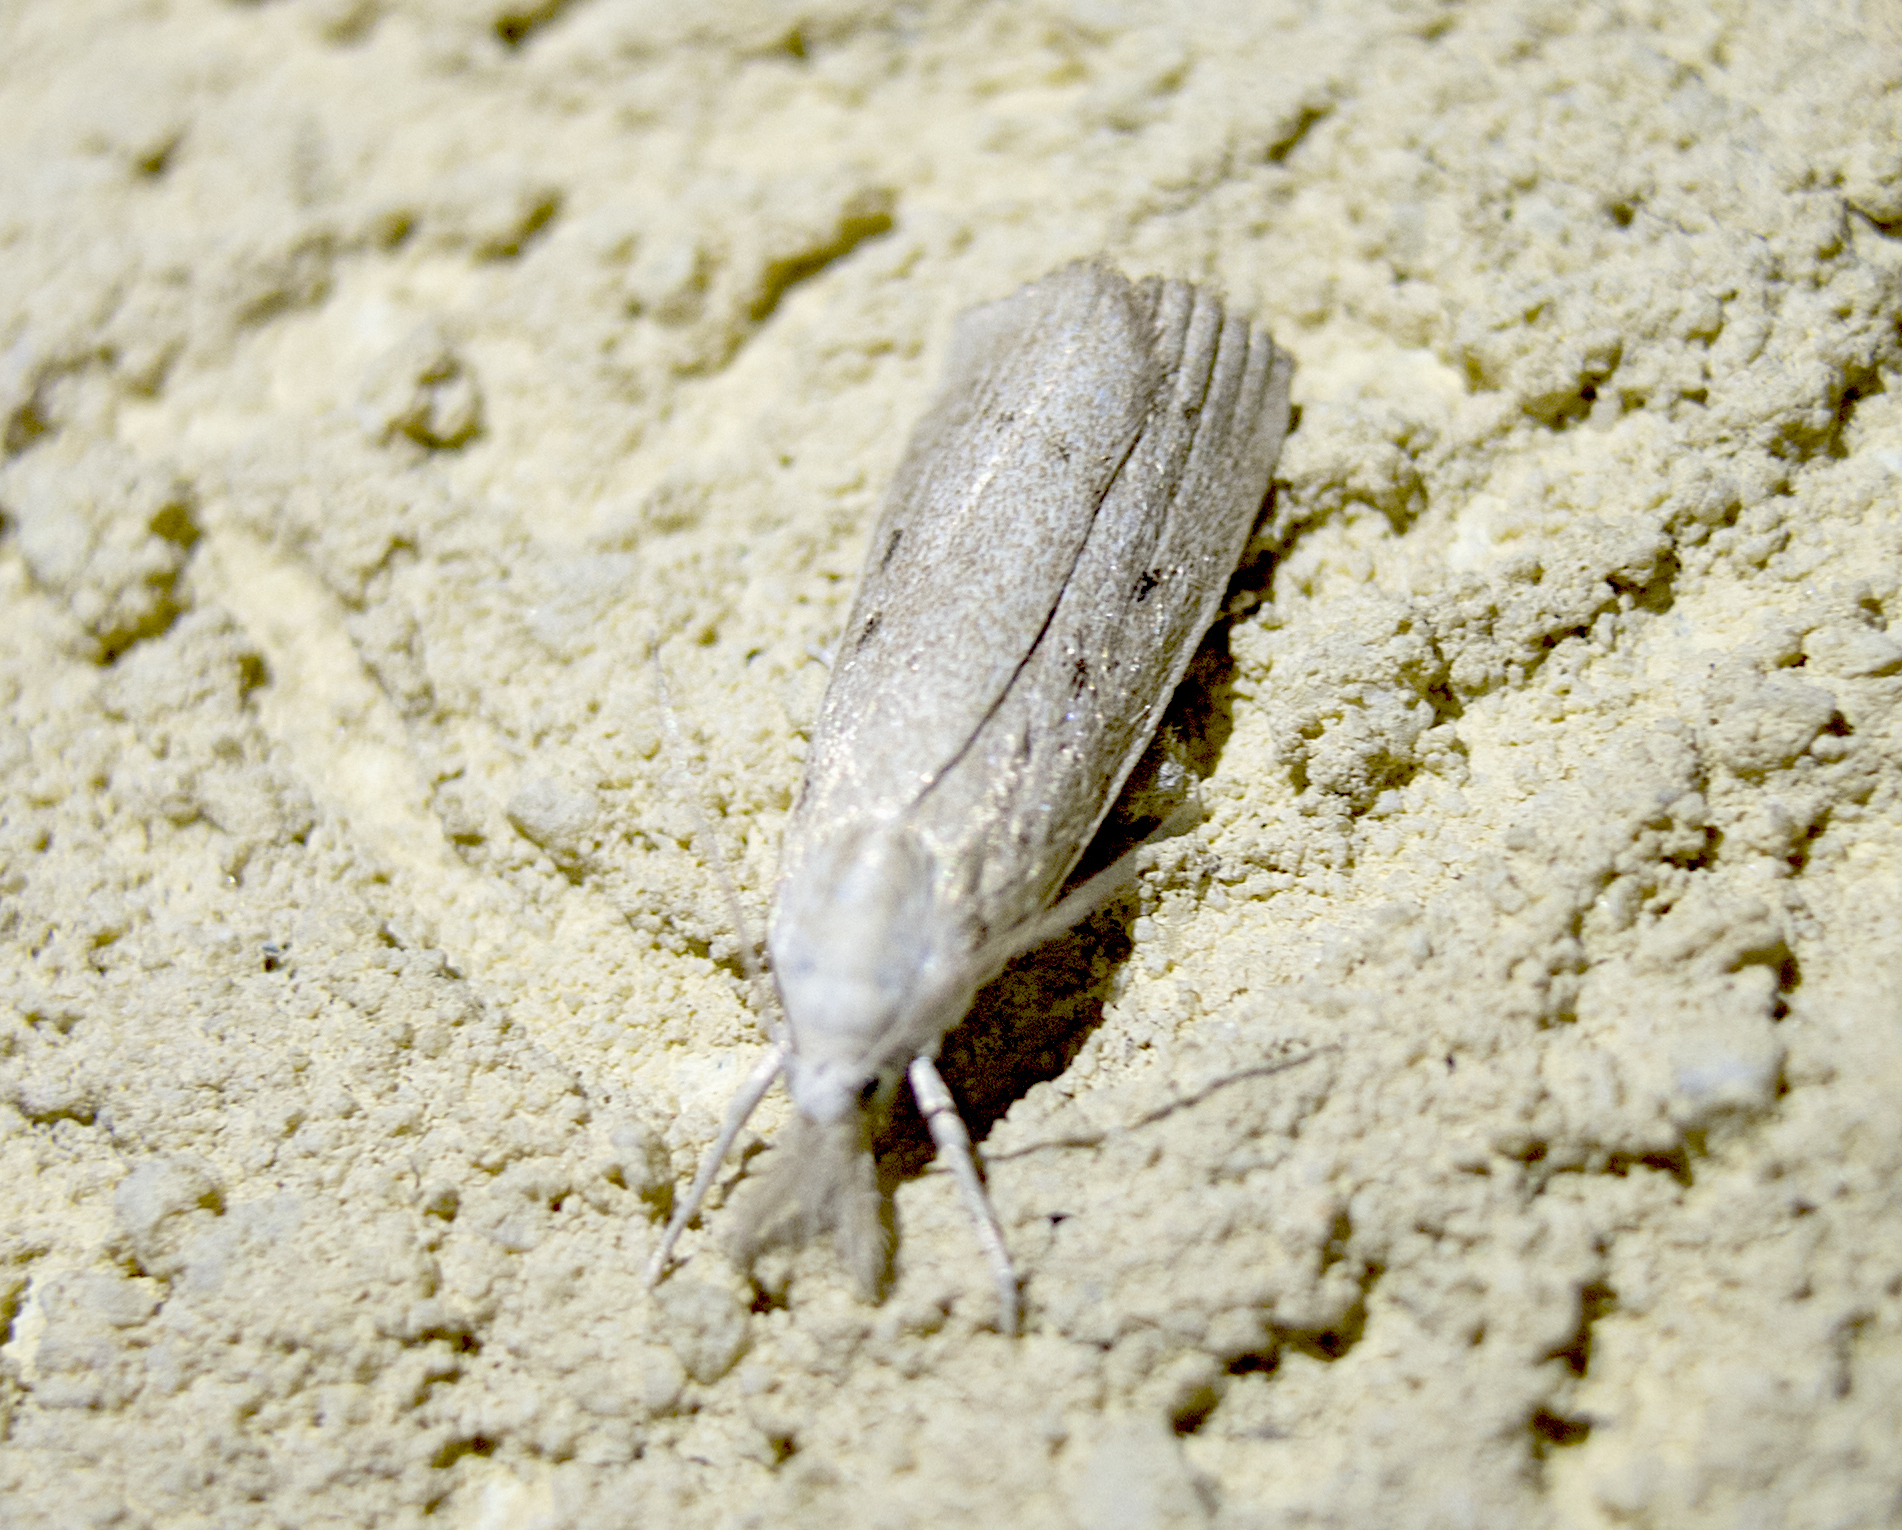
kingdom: Animalia
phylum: Arthropoda
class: Insecta
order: Lepidoptera
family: Crambidae
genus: Calamotropha
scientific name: Calamotropha paludella
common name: Bulrush veneer
